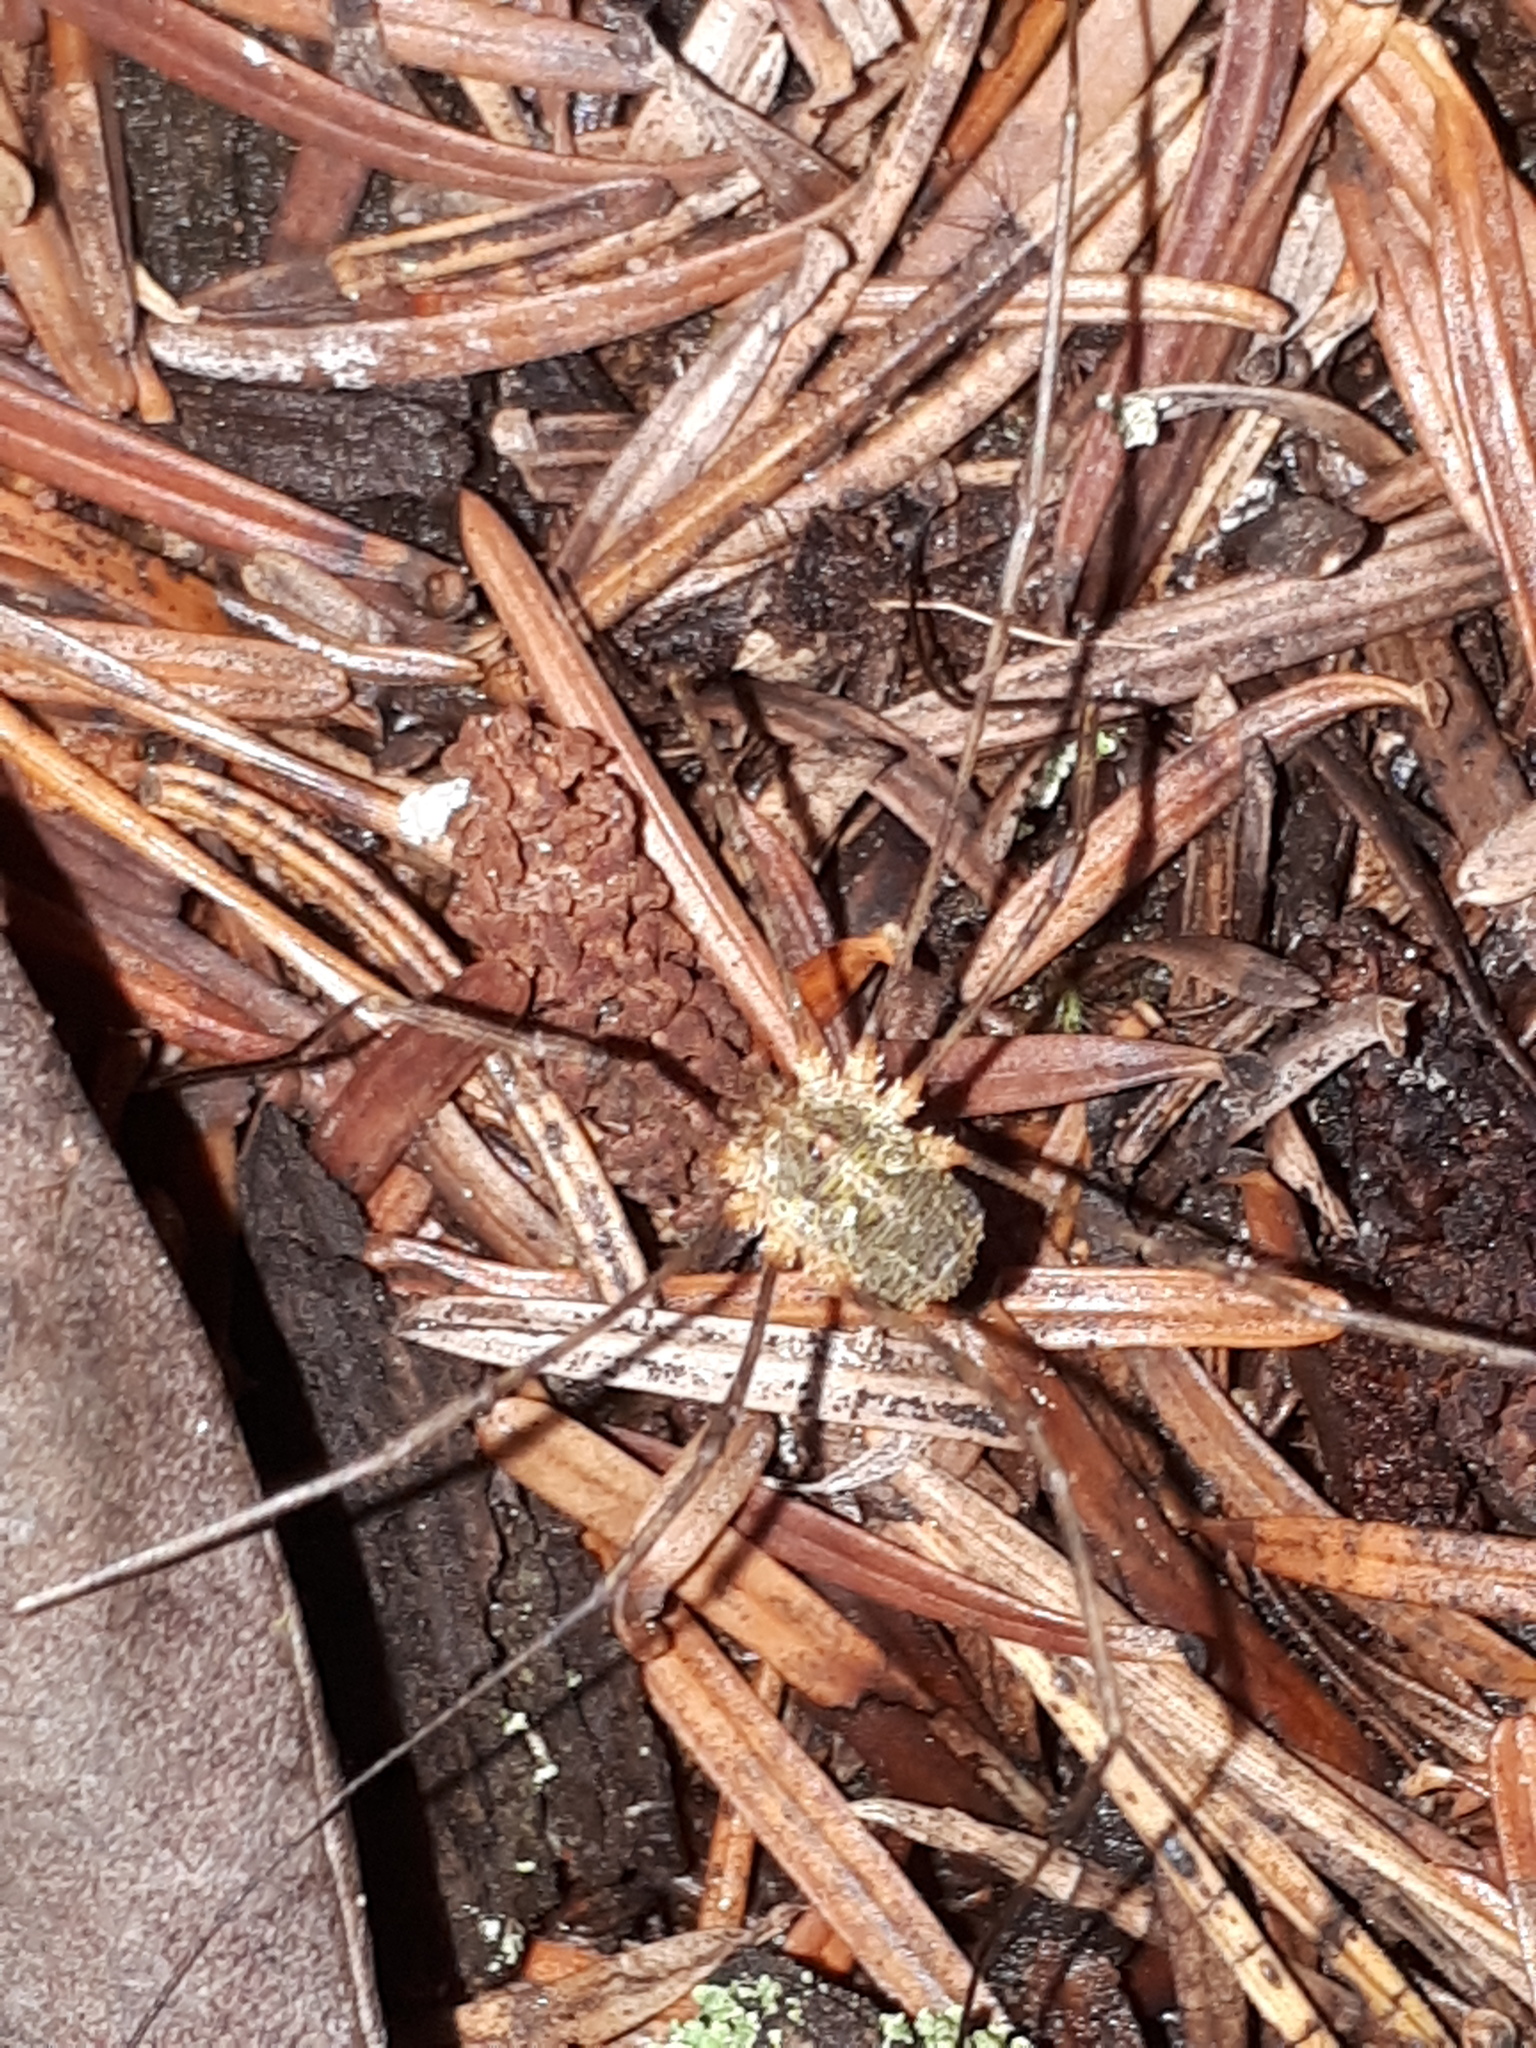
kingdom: Animalia
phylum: Arthropoda
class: Arachnida
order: Opiliones
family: Phalangiidae
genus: Lacinius
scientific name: Lacinius dentiger
